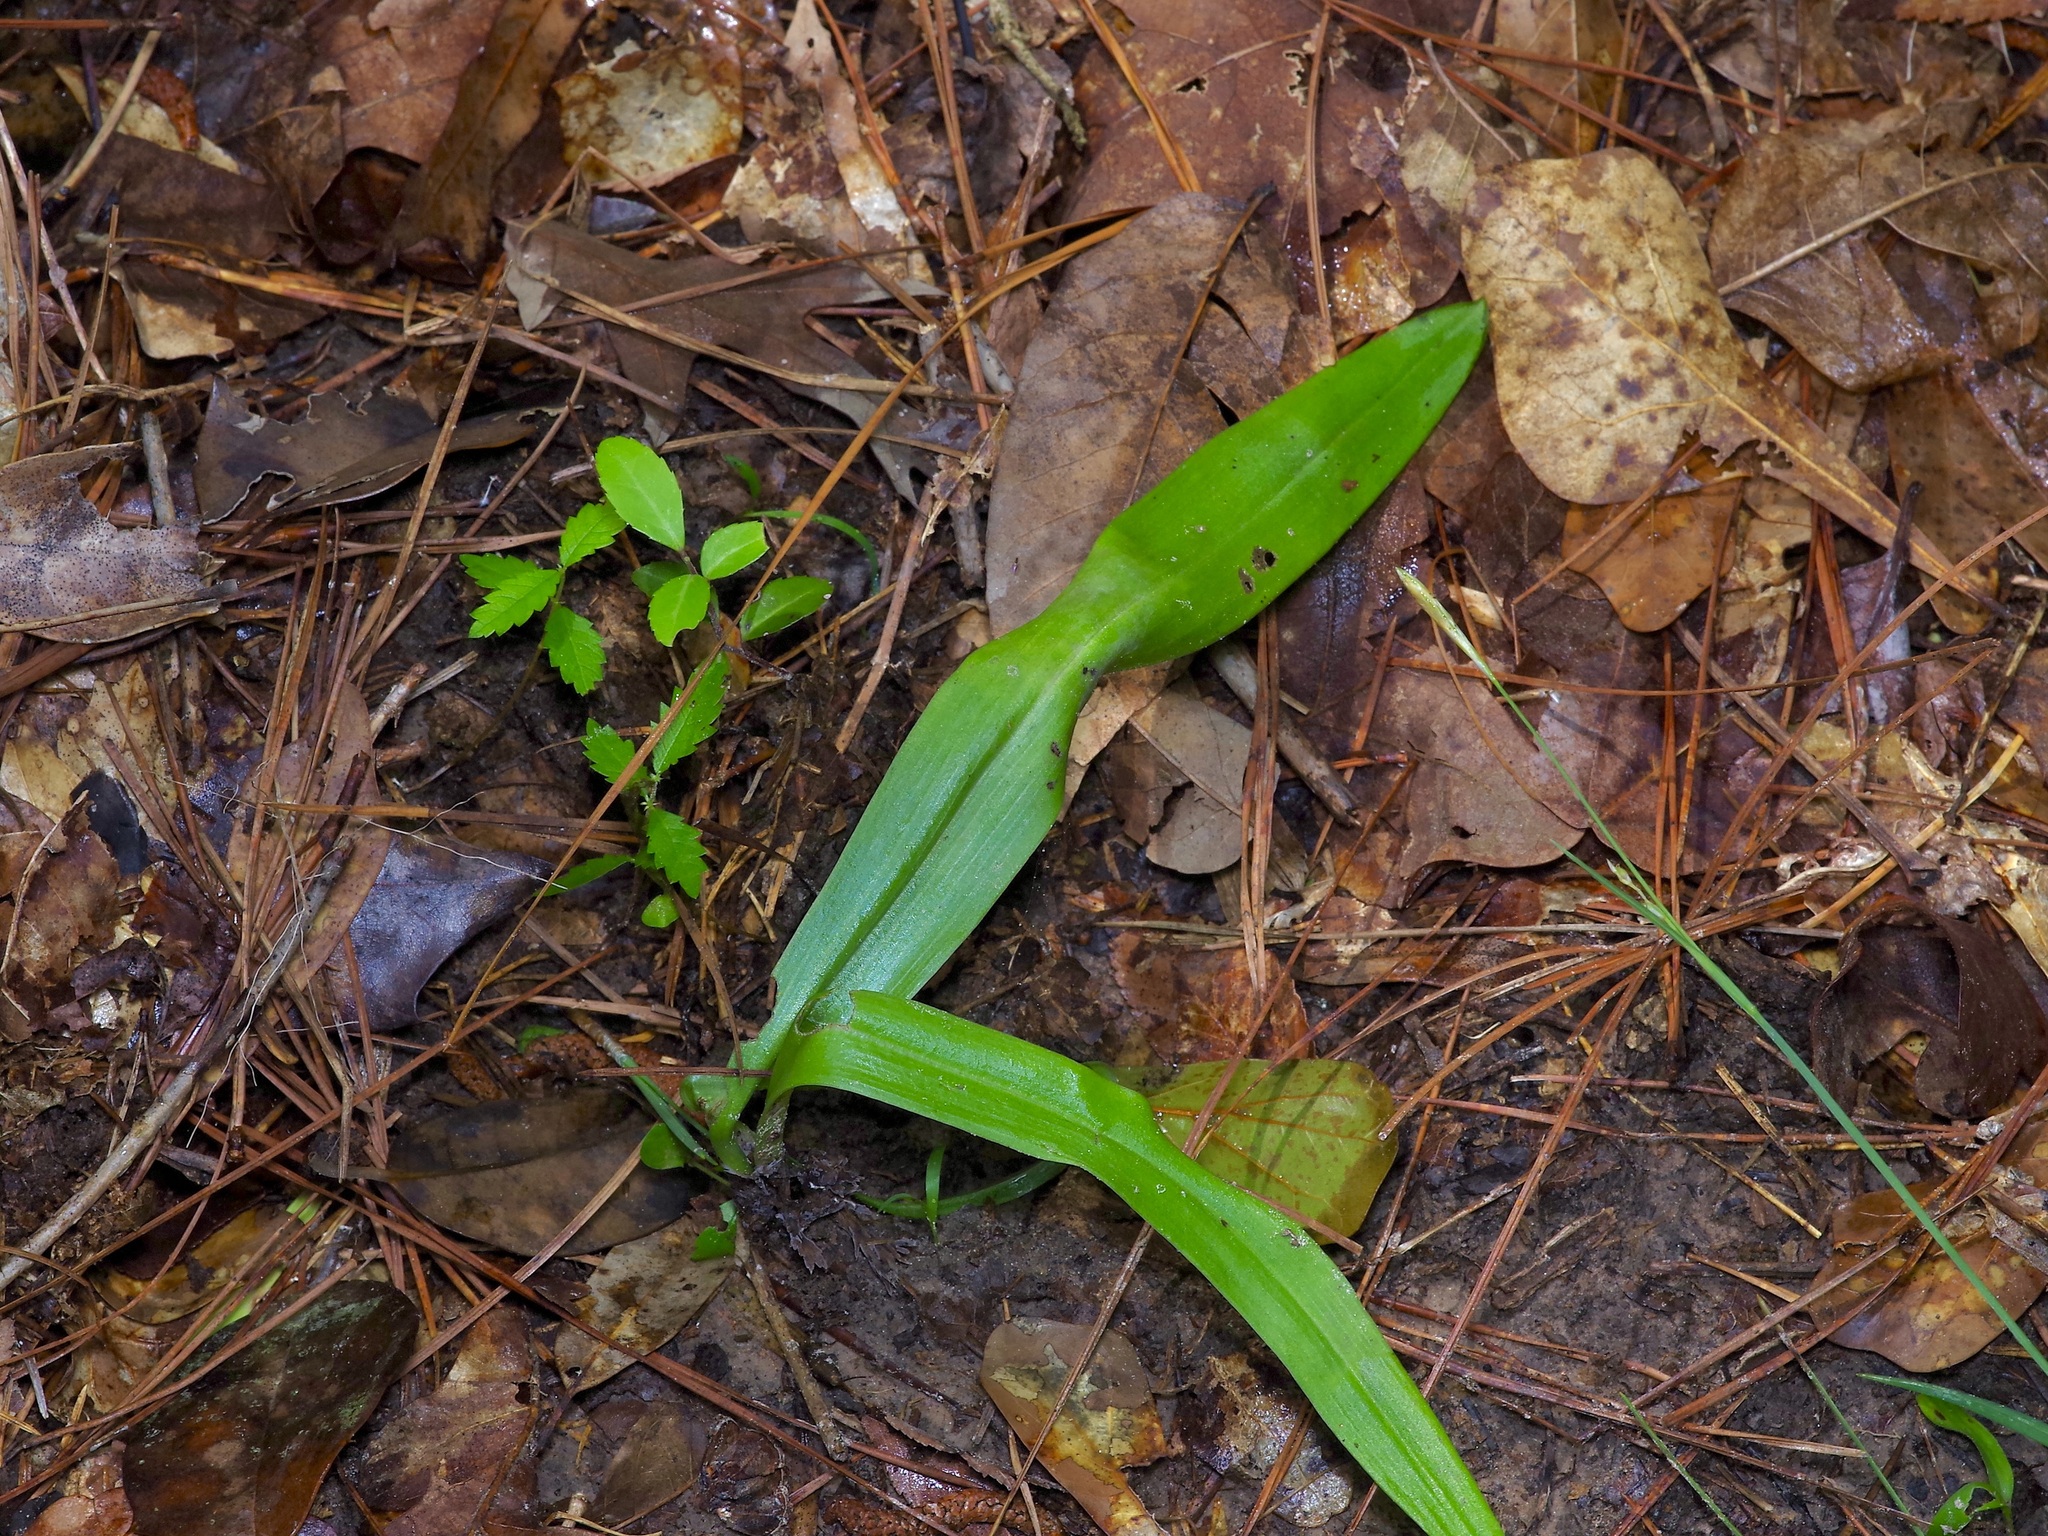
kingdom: Plantae
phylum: Tracheophyta
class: Liliopsida
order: Asparagales
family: Orchidaceae
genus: Platanthera
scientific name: Platanthera flava
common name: Gypsy-spikes
